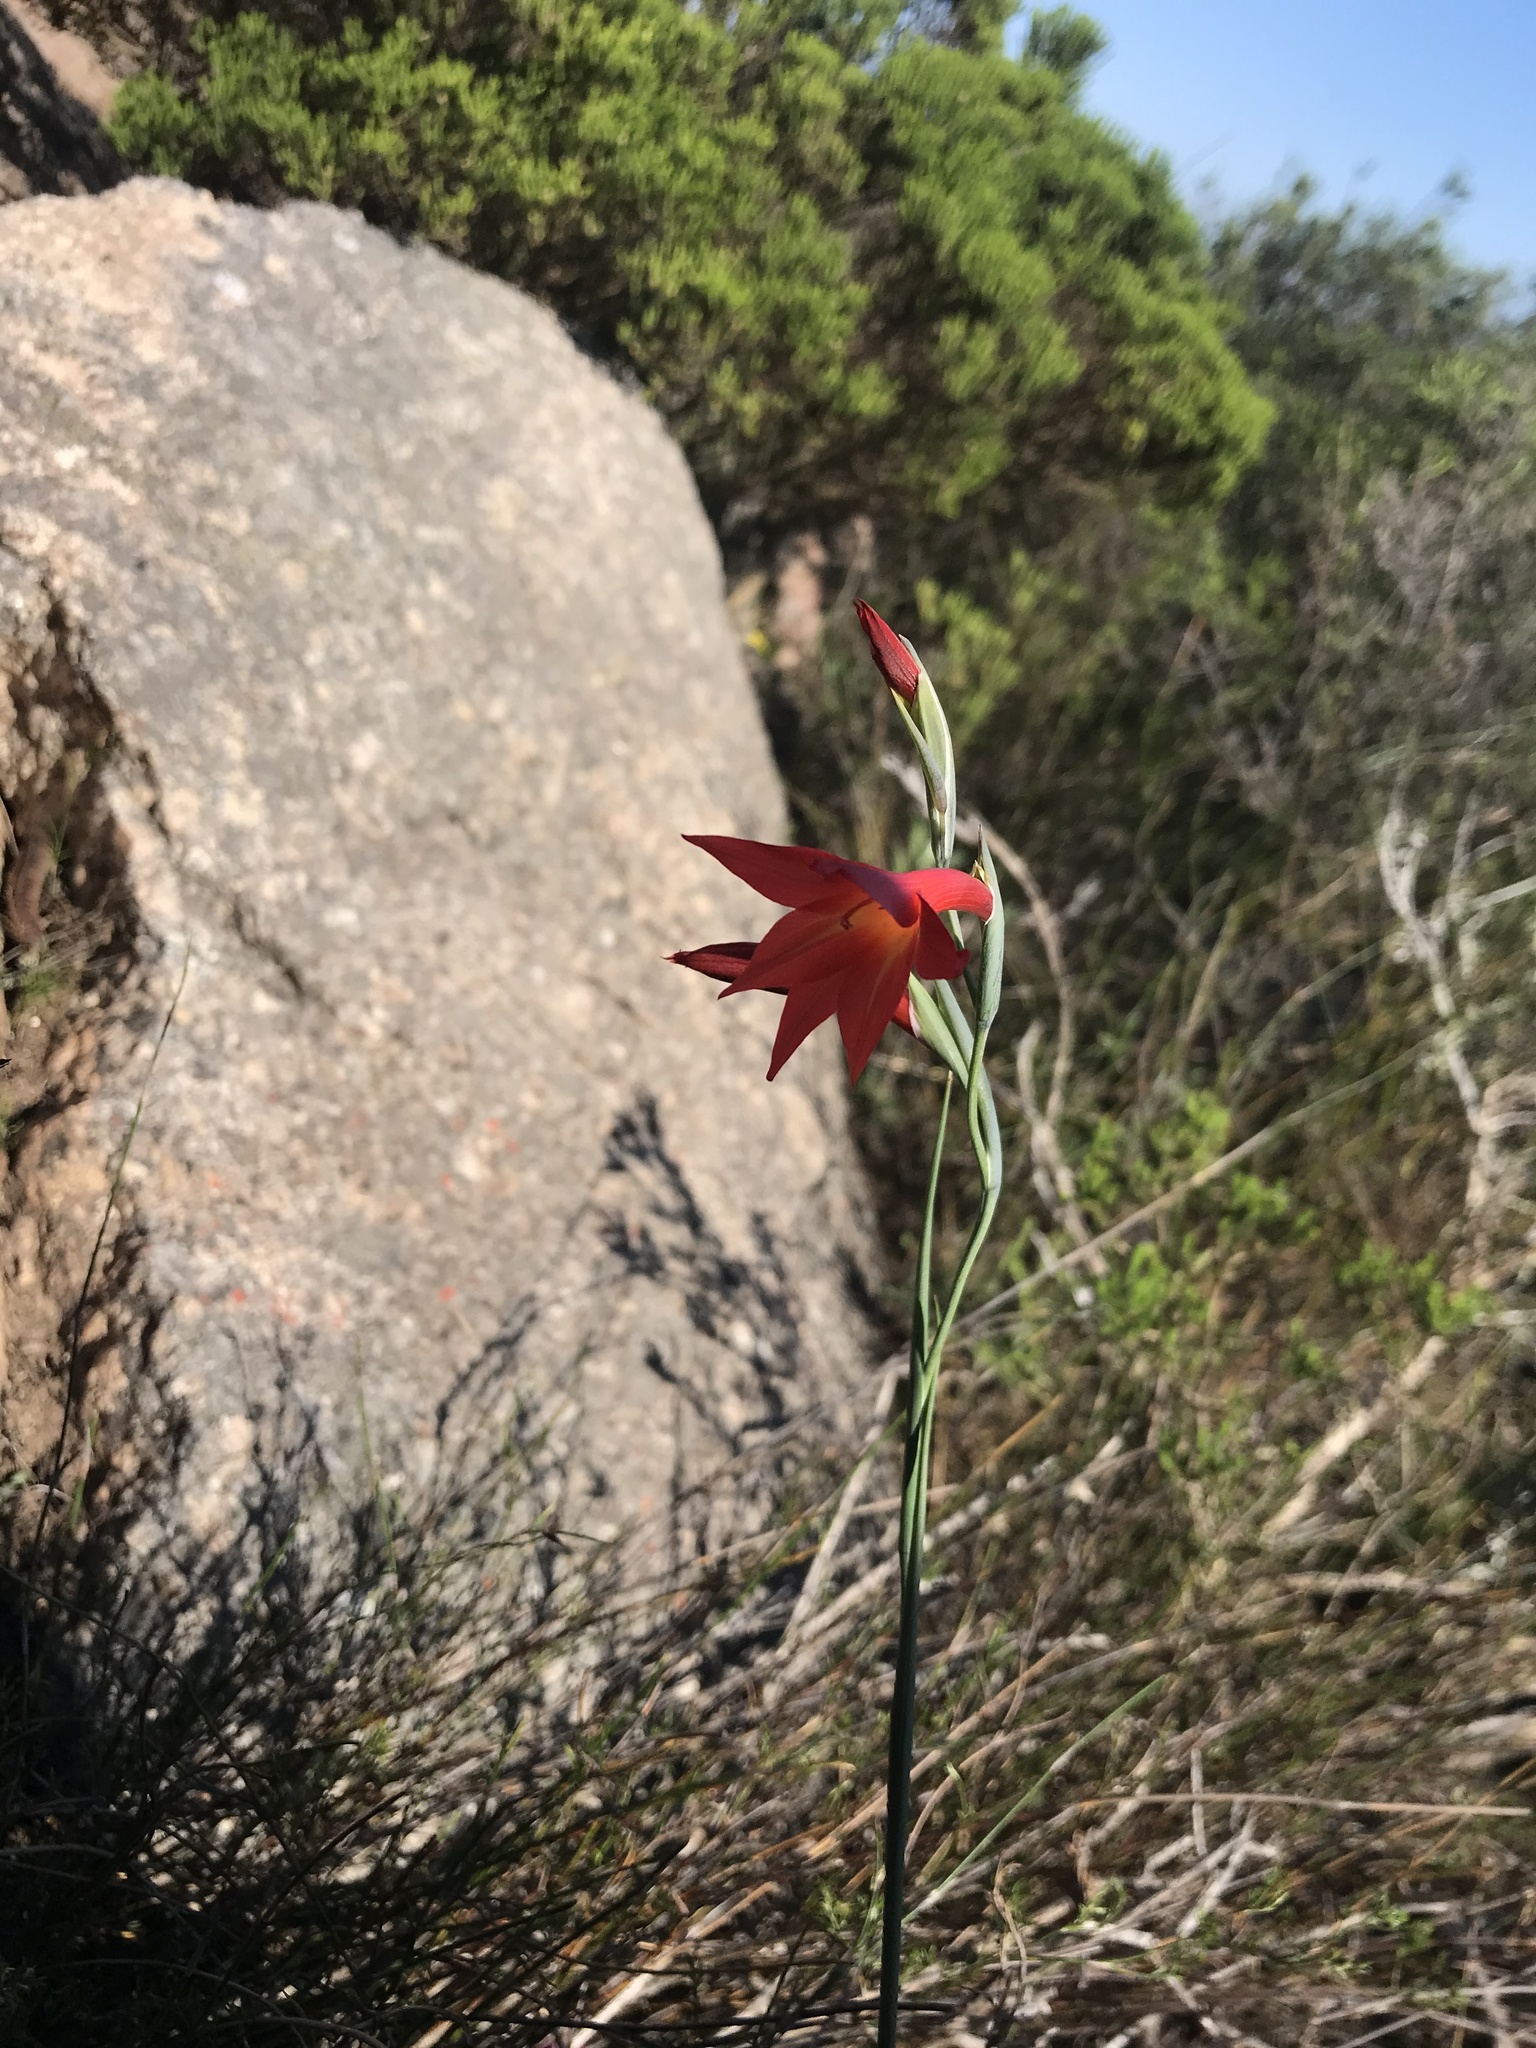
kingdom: Plantae
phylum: Tracheophyta
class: Liliopsida
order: Asparagales
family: Iridaceae
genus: Gladiolus
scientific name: Gladiolus priorii
